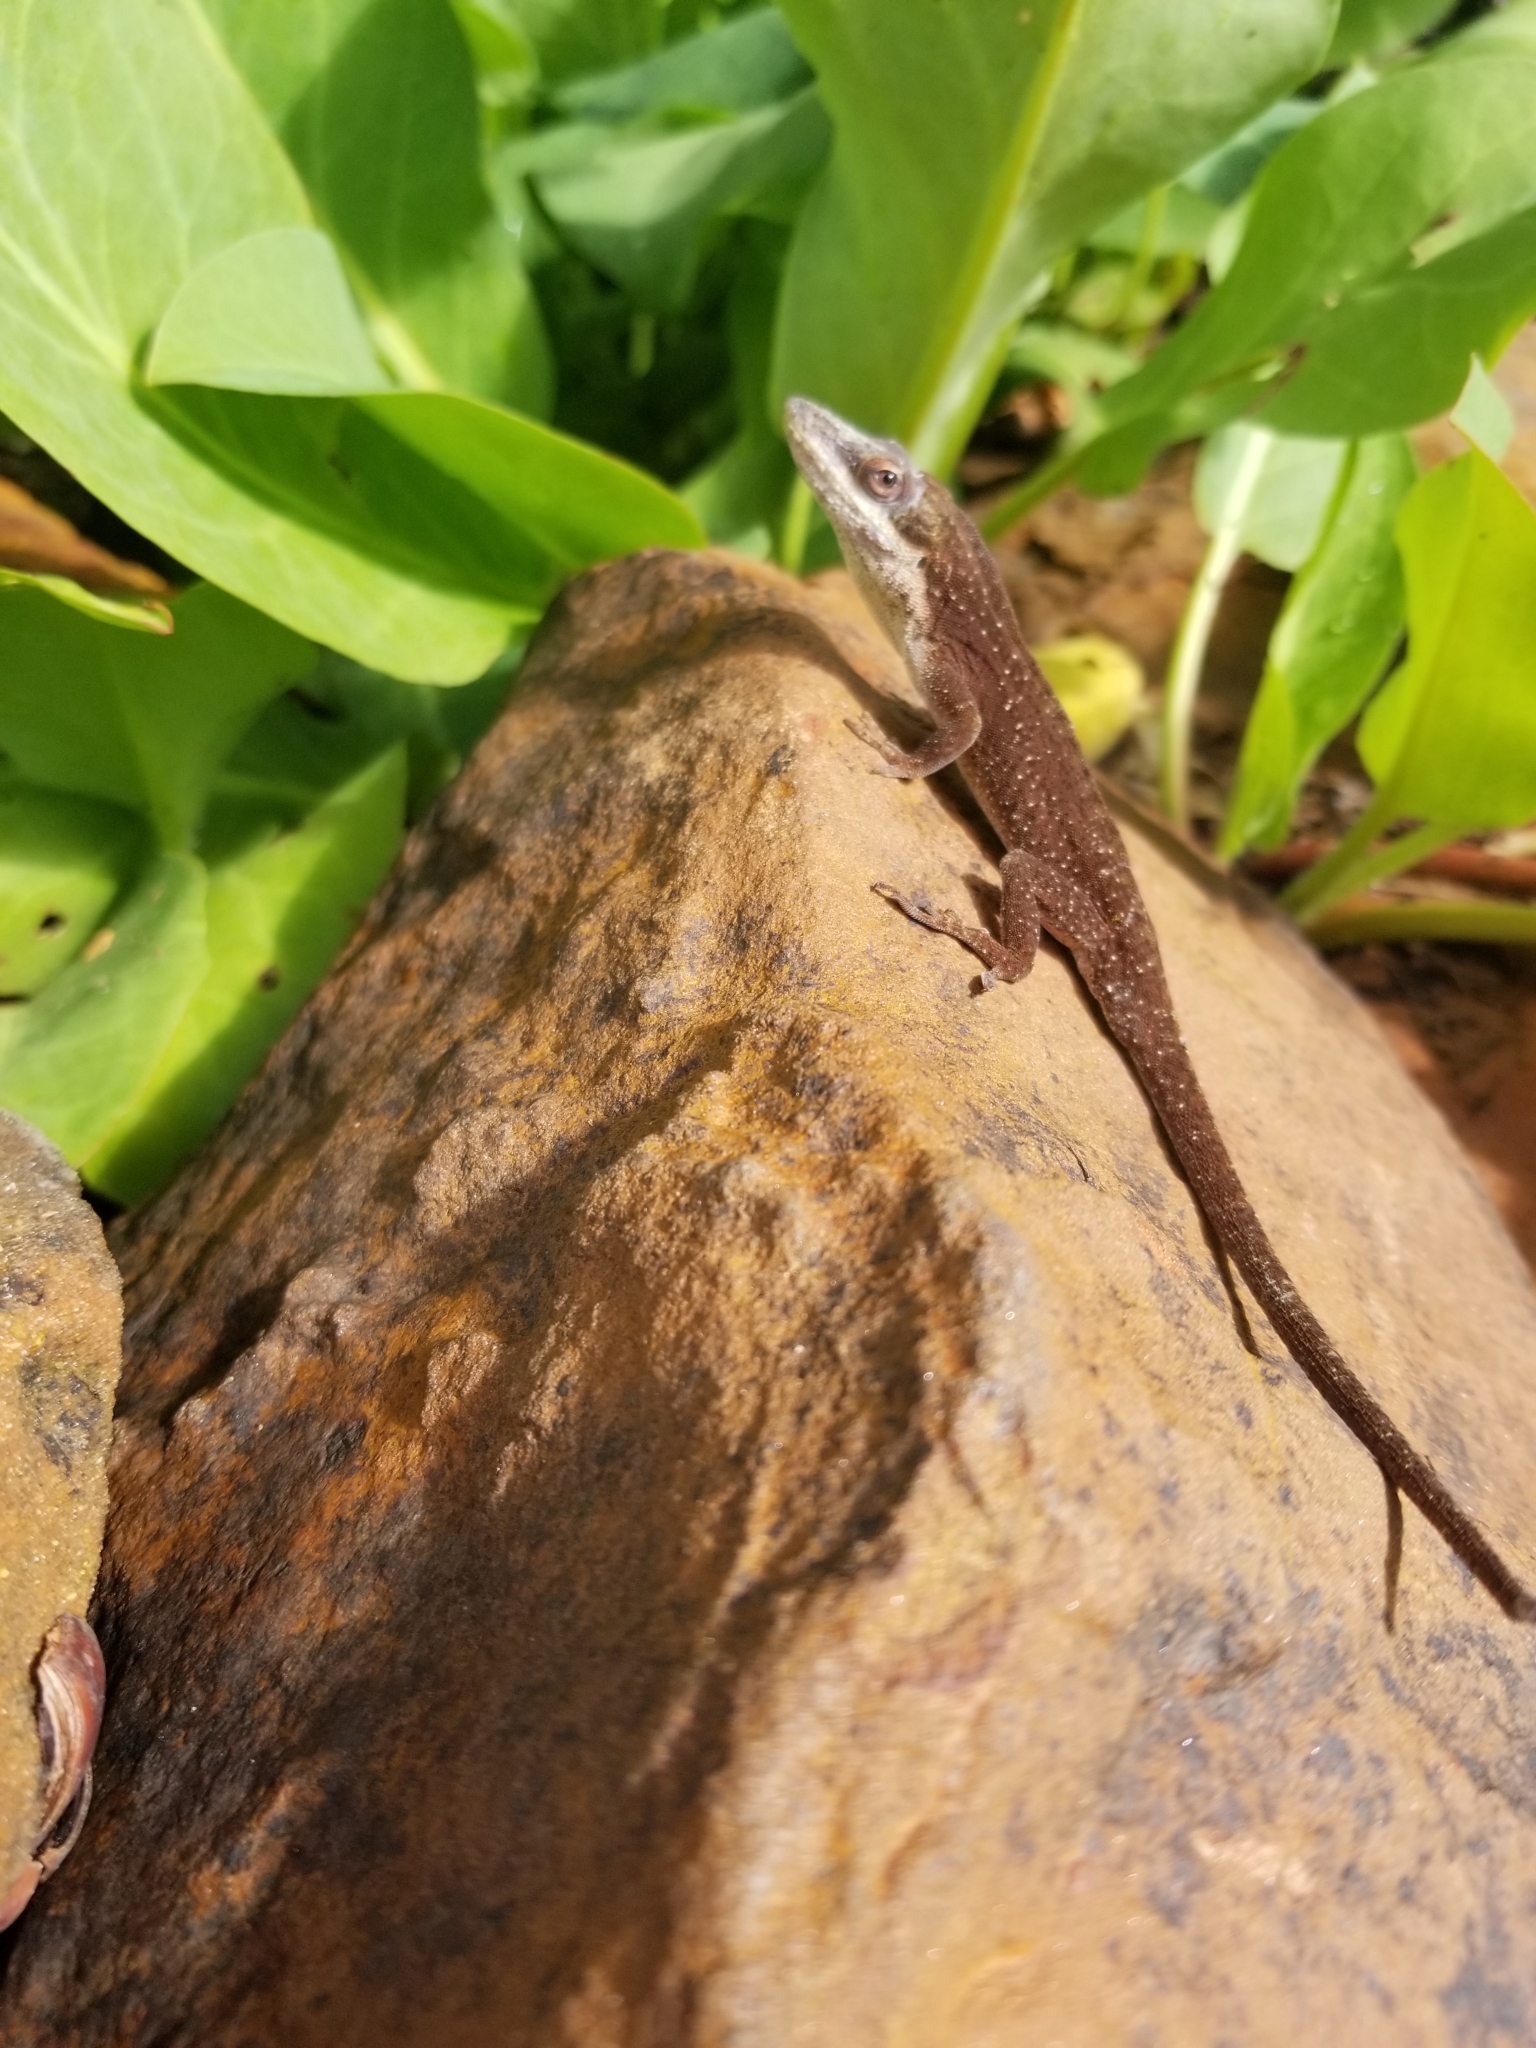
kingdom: Animalia
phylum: Chordata
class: Squamata
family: Dactyloidae
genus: Anolis
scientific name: Anolis carolinensis
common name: Green anole
